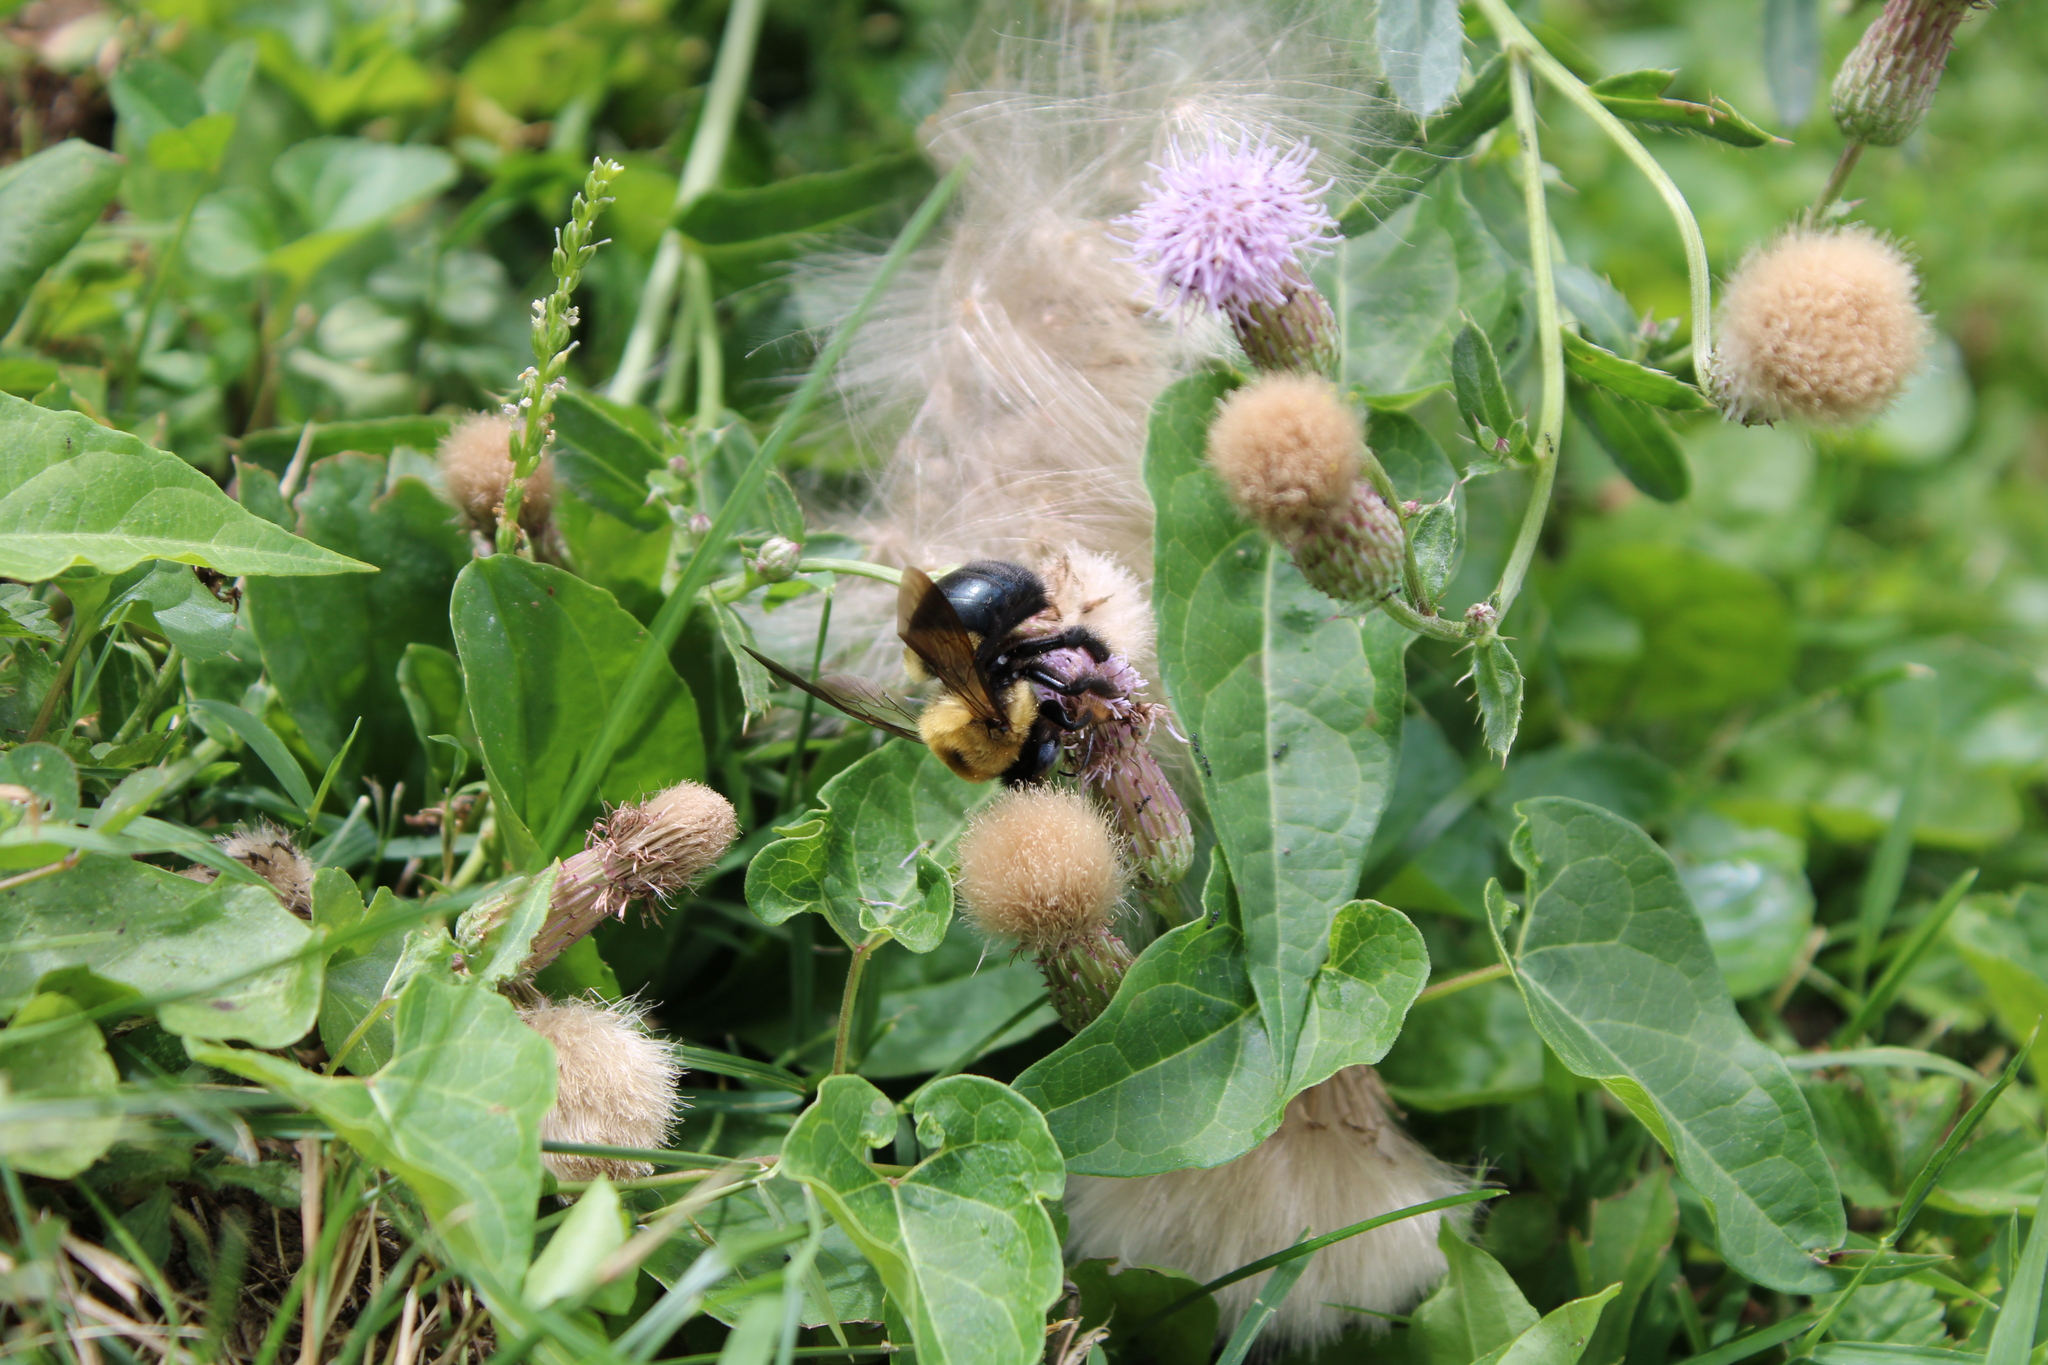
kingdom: Animalia
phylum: Arthropoda
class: Insecta
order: Hymenoptera
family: Apidae
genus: Xylocopa
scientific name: Xylocopa virginica
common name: Carpenter bee
